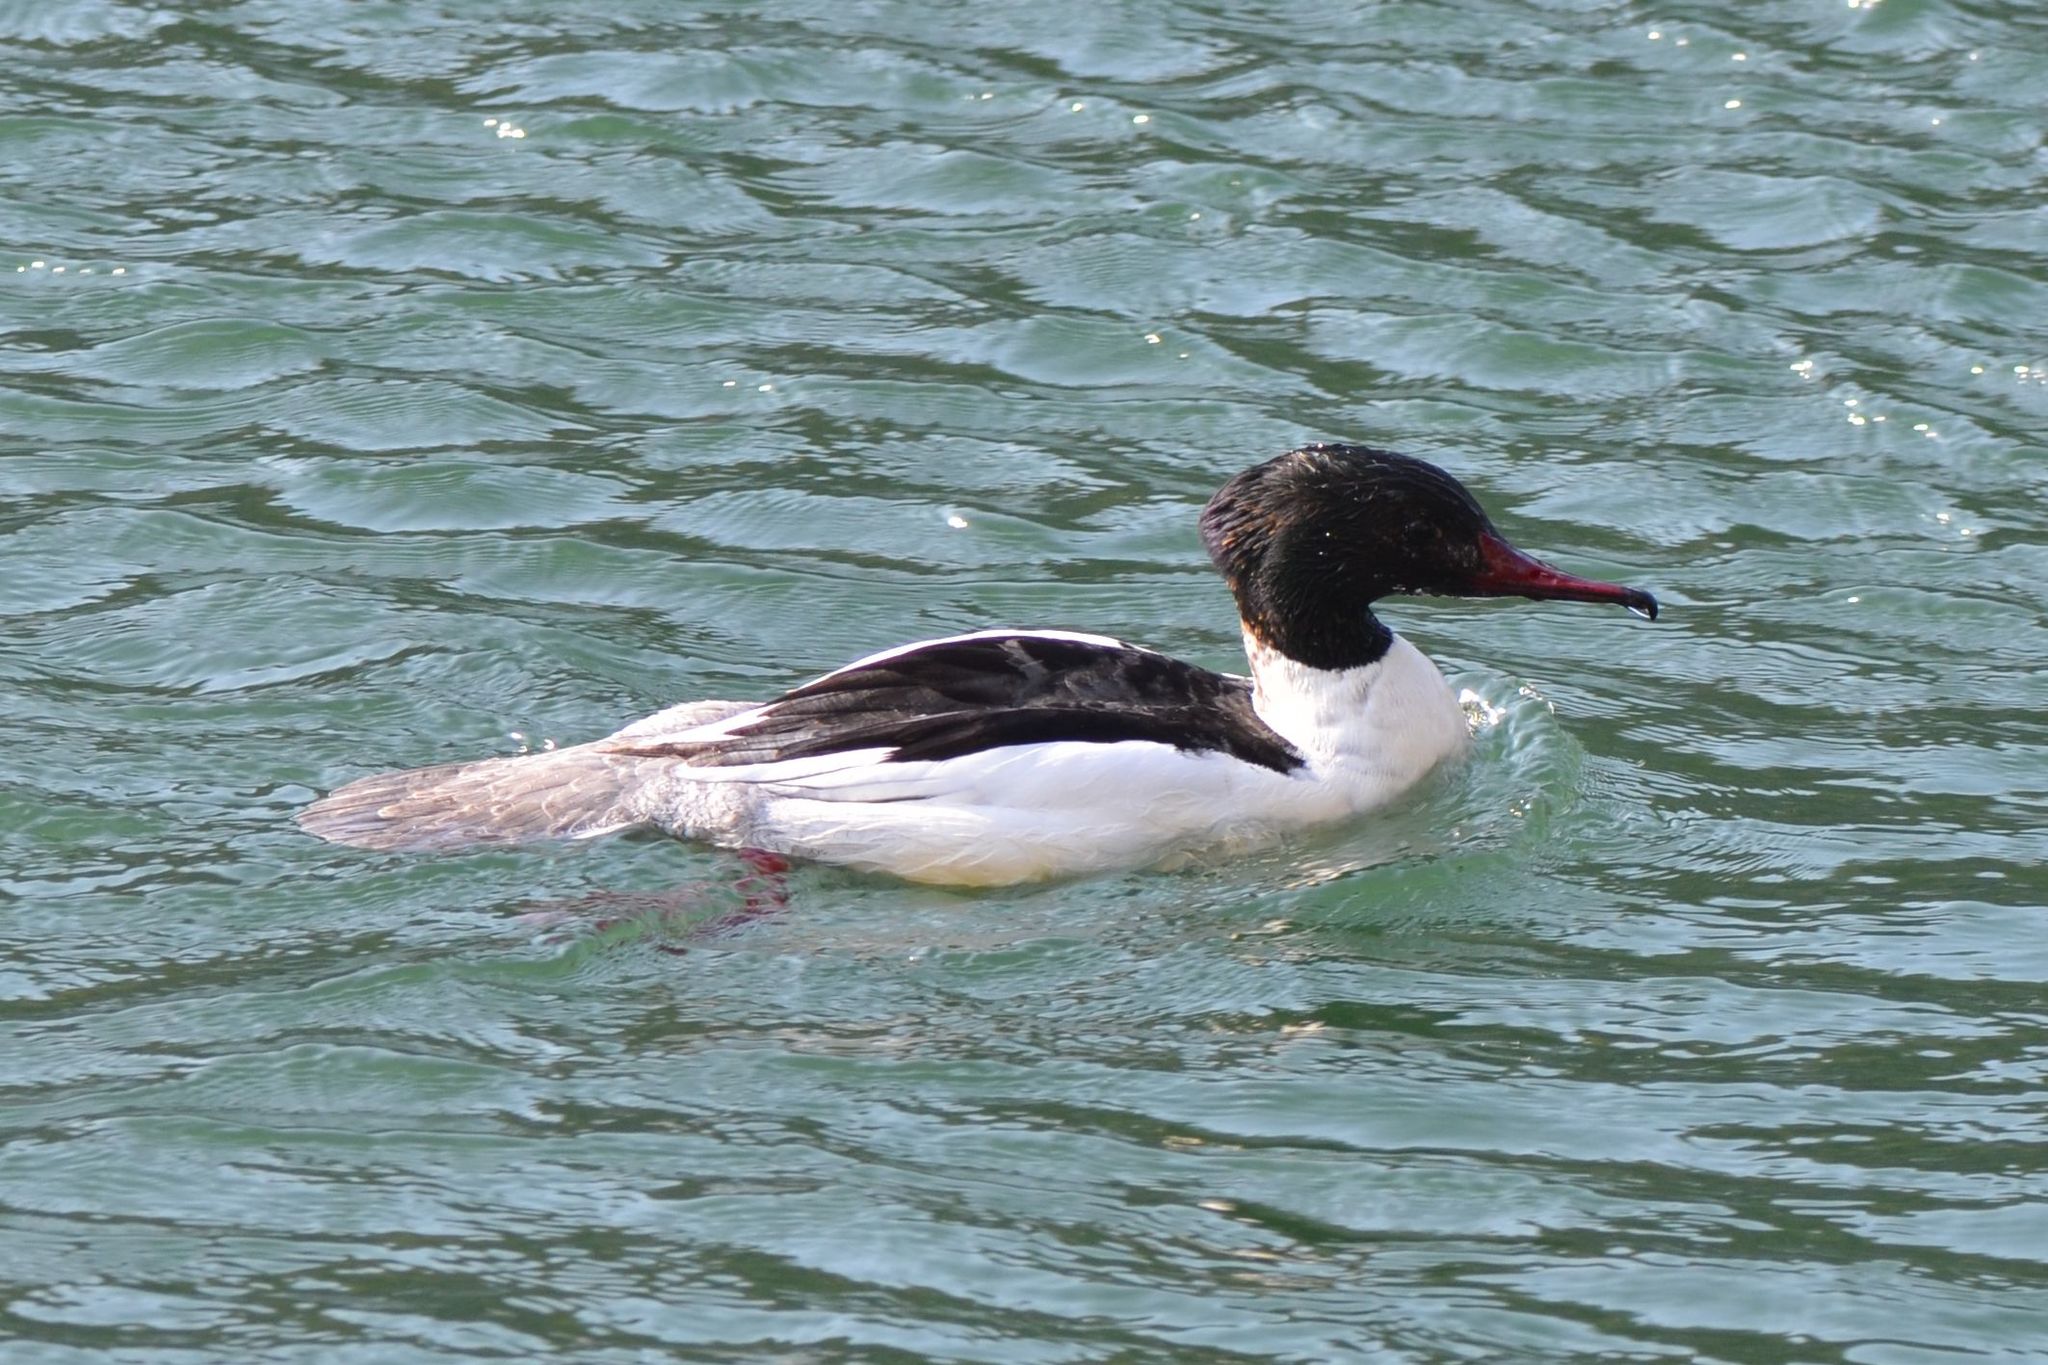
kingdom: Animalia
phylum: Chordata
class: Aves
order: Anseriformes
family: Anatidae
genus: Mergus
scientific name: Mergus merganser
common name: Common merganser
